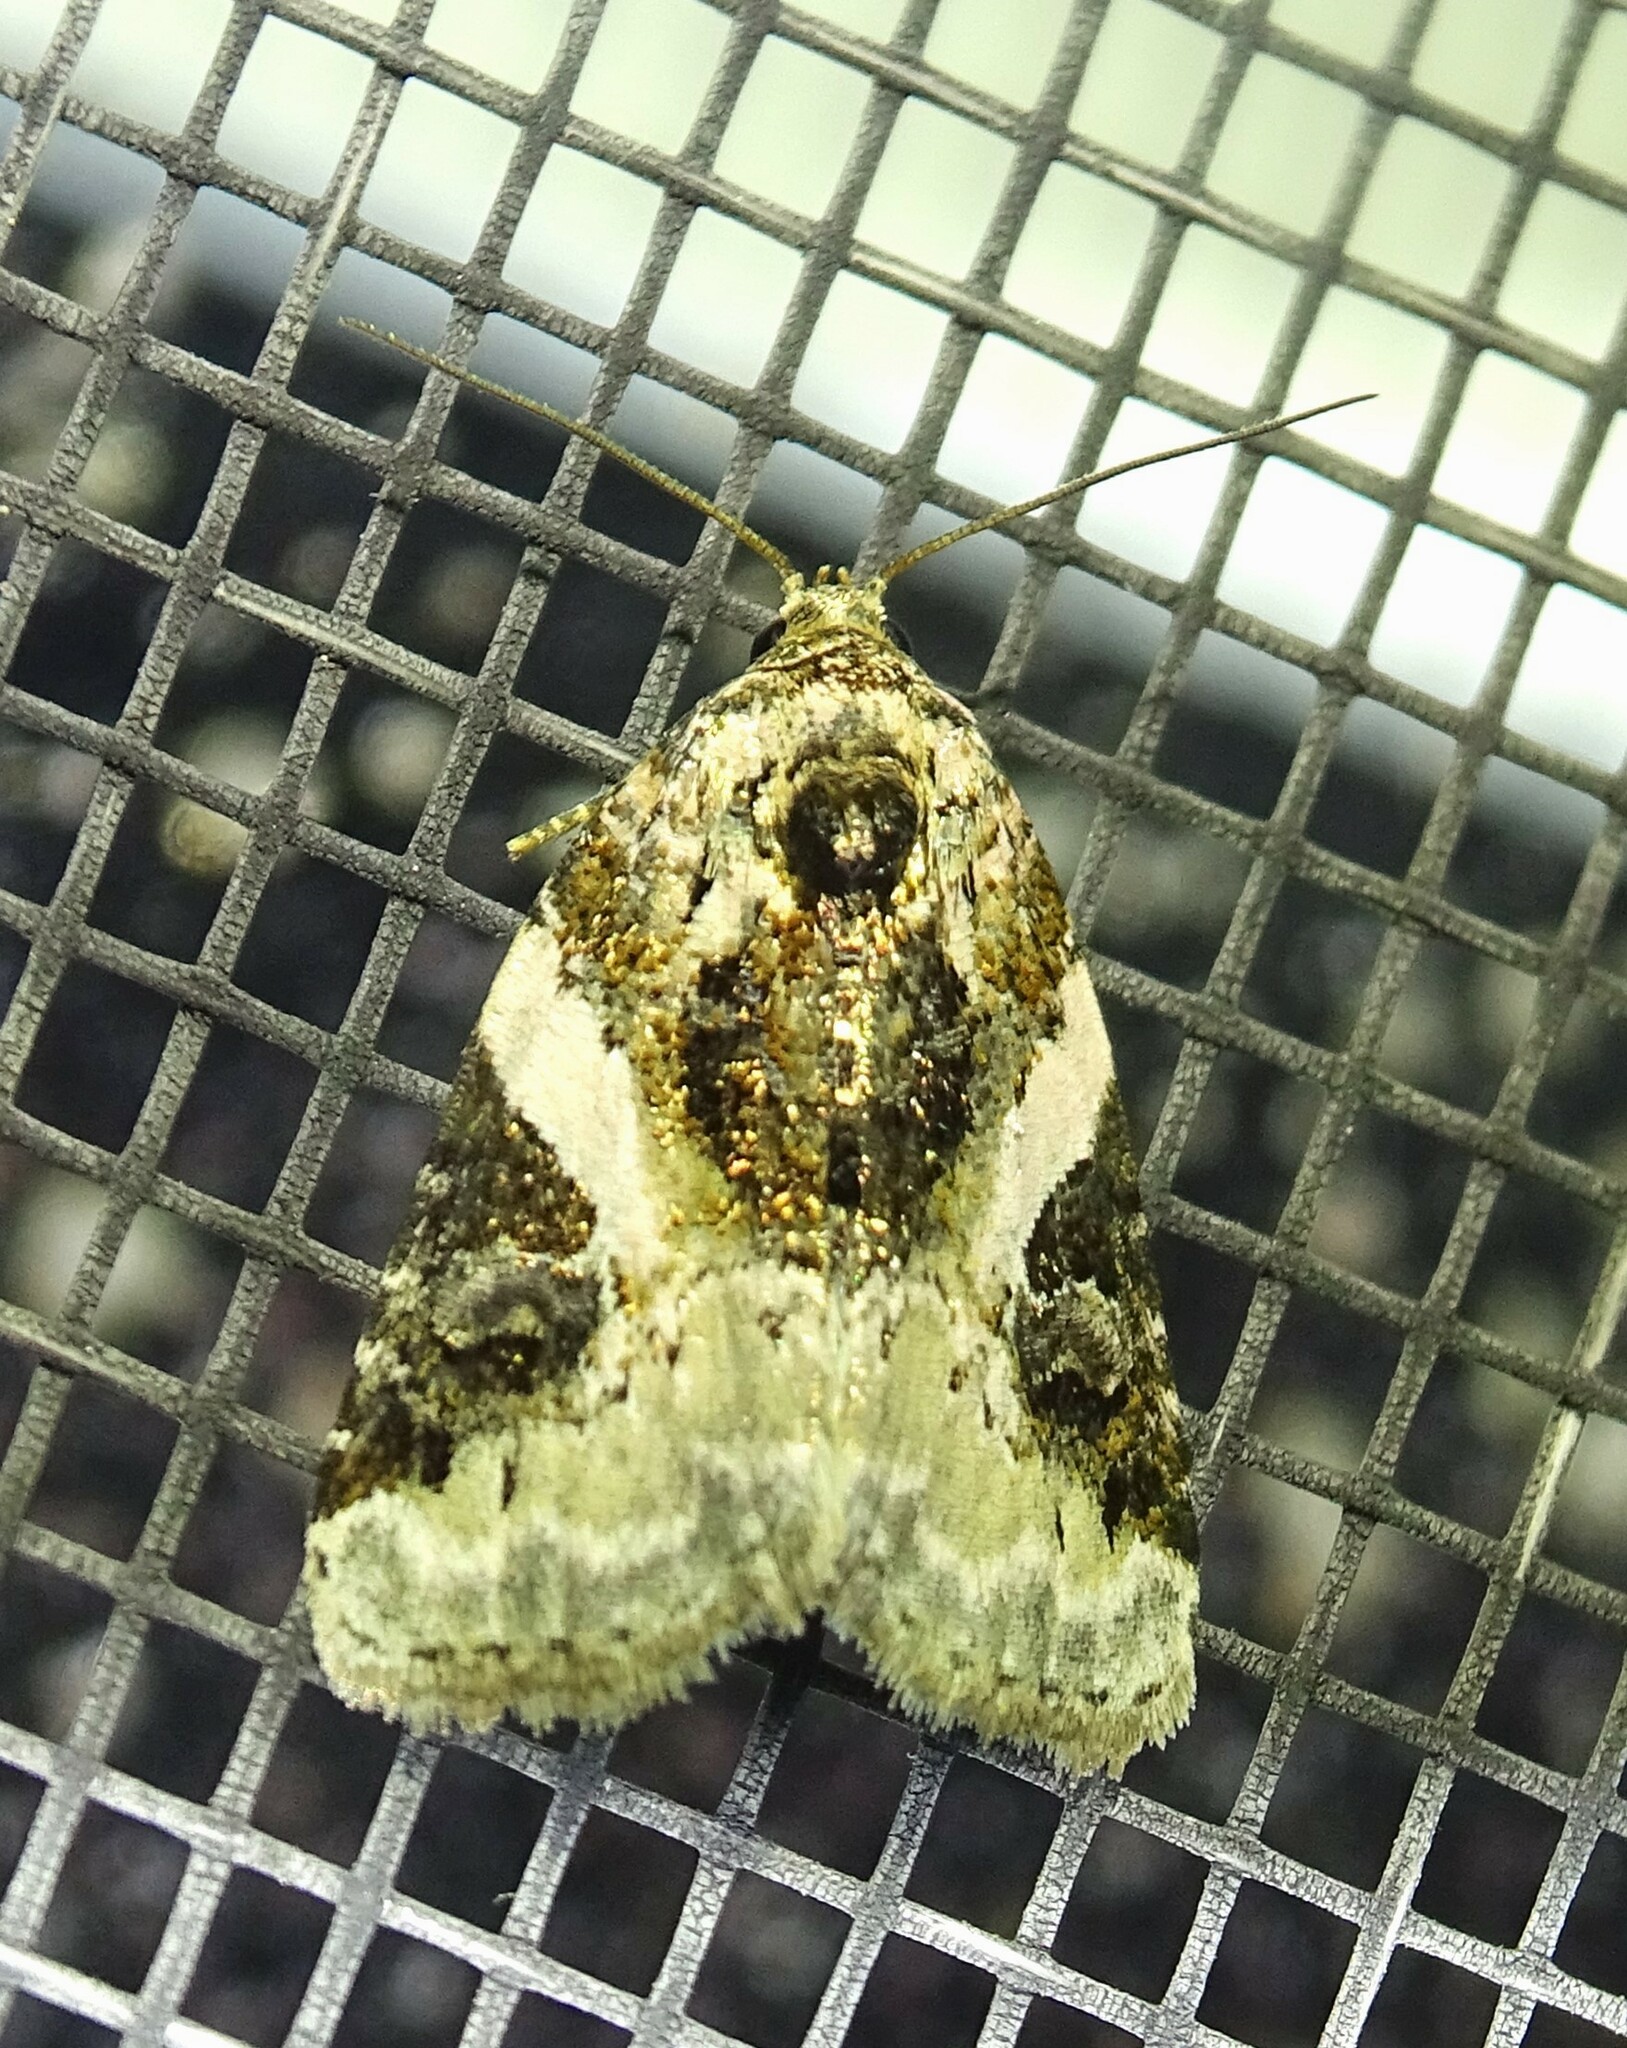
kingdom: Animalia
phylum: Arthropoda
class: Insecta
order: Lepidoptera
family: Noctuidae
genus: Pseudeustrotia
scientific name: Pseudeustrotia carneola
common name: Pink-barred lithacodia moth
